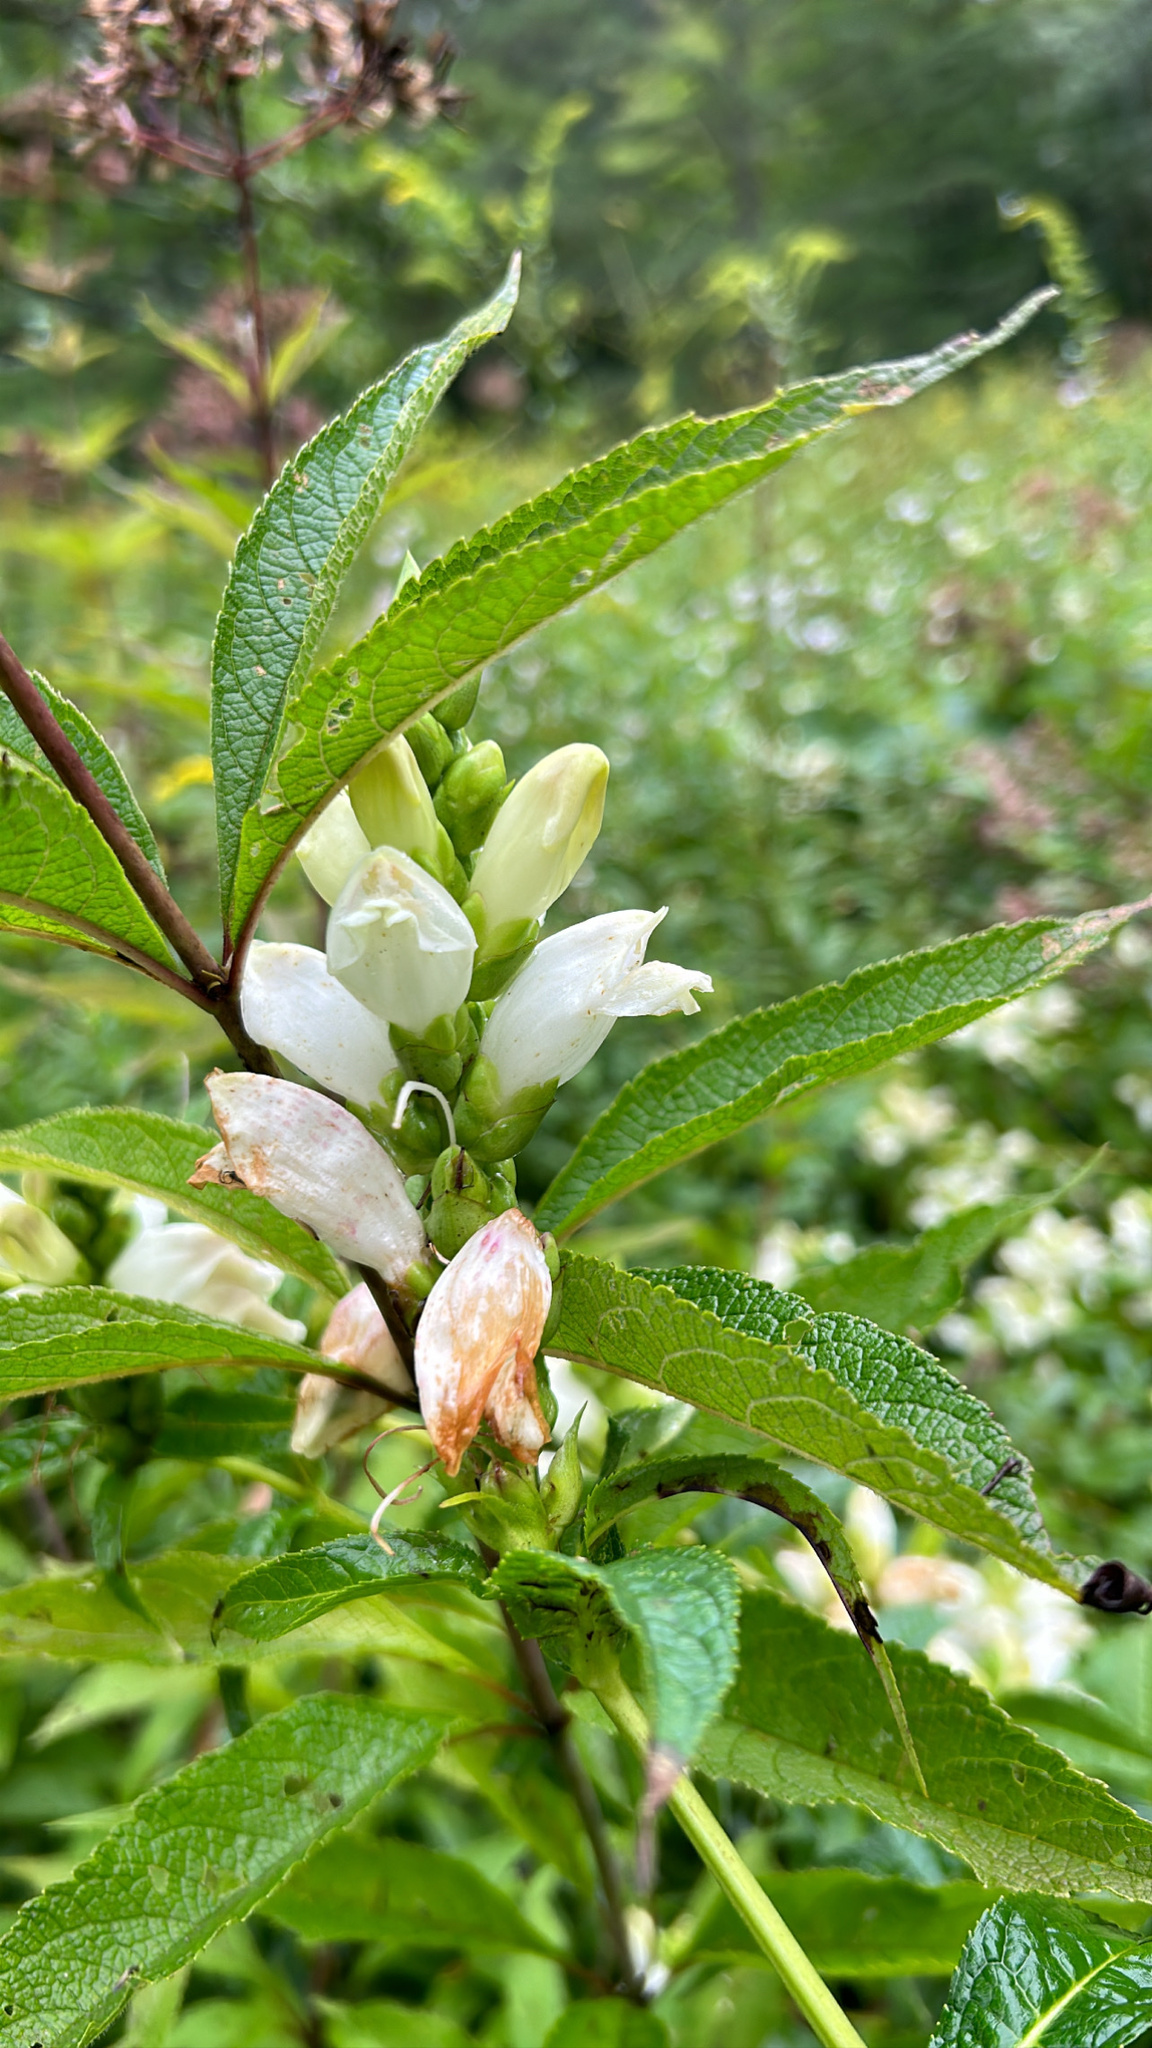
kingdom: Plantae
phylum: Tracheophyta
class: Magnoliopsida
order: Lamiales
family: Plantaginaceae
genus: Chelone
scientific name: Chelone glabra
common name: Snakehead
